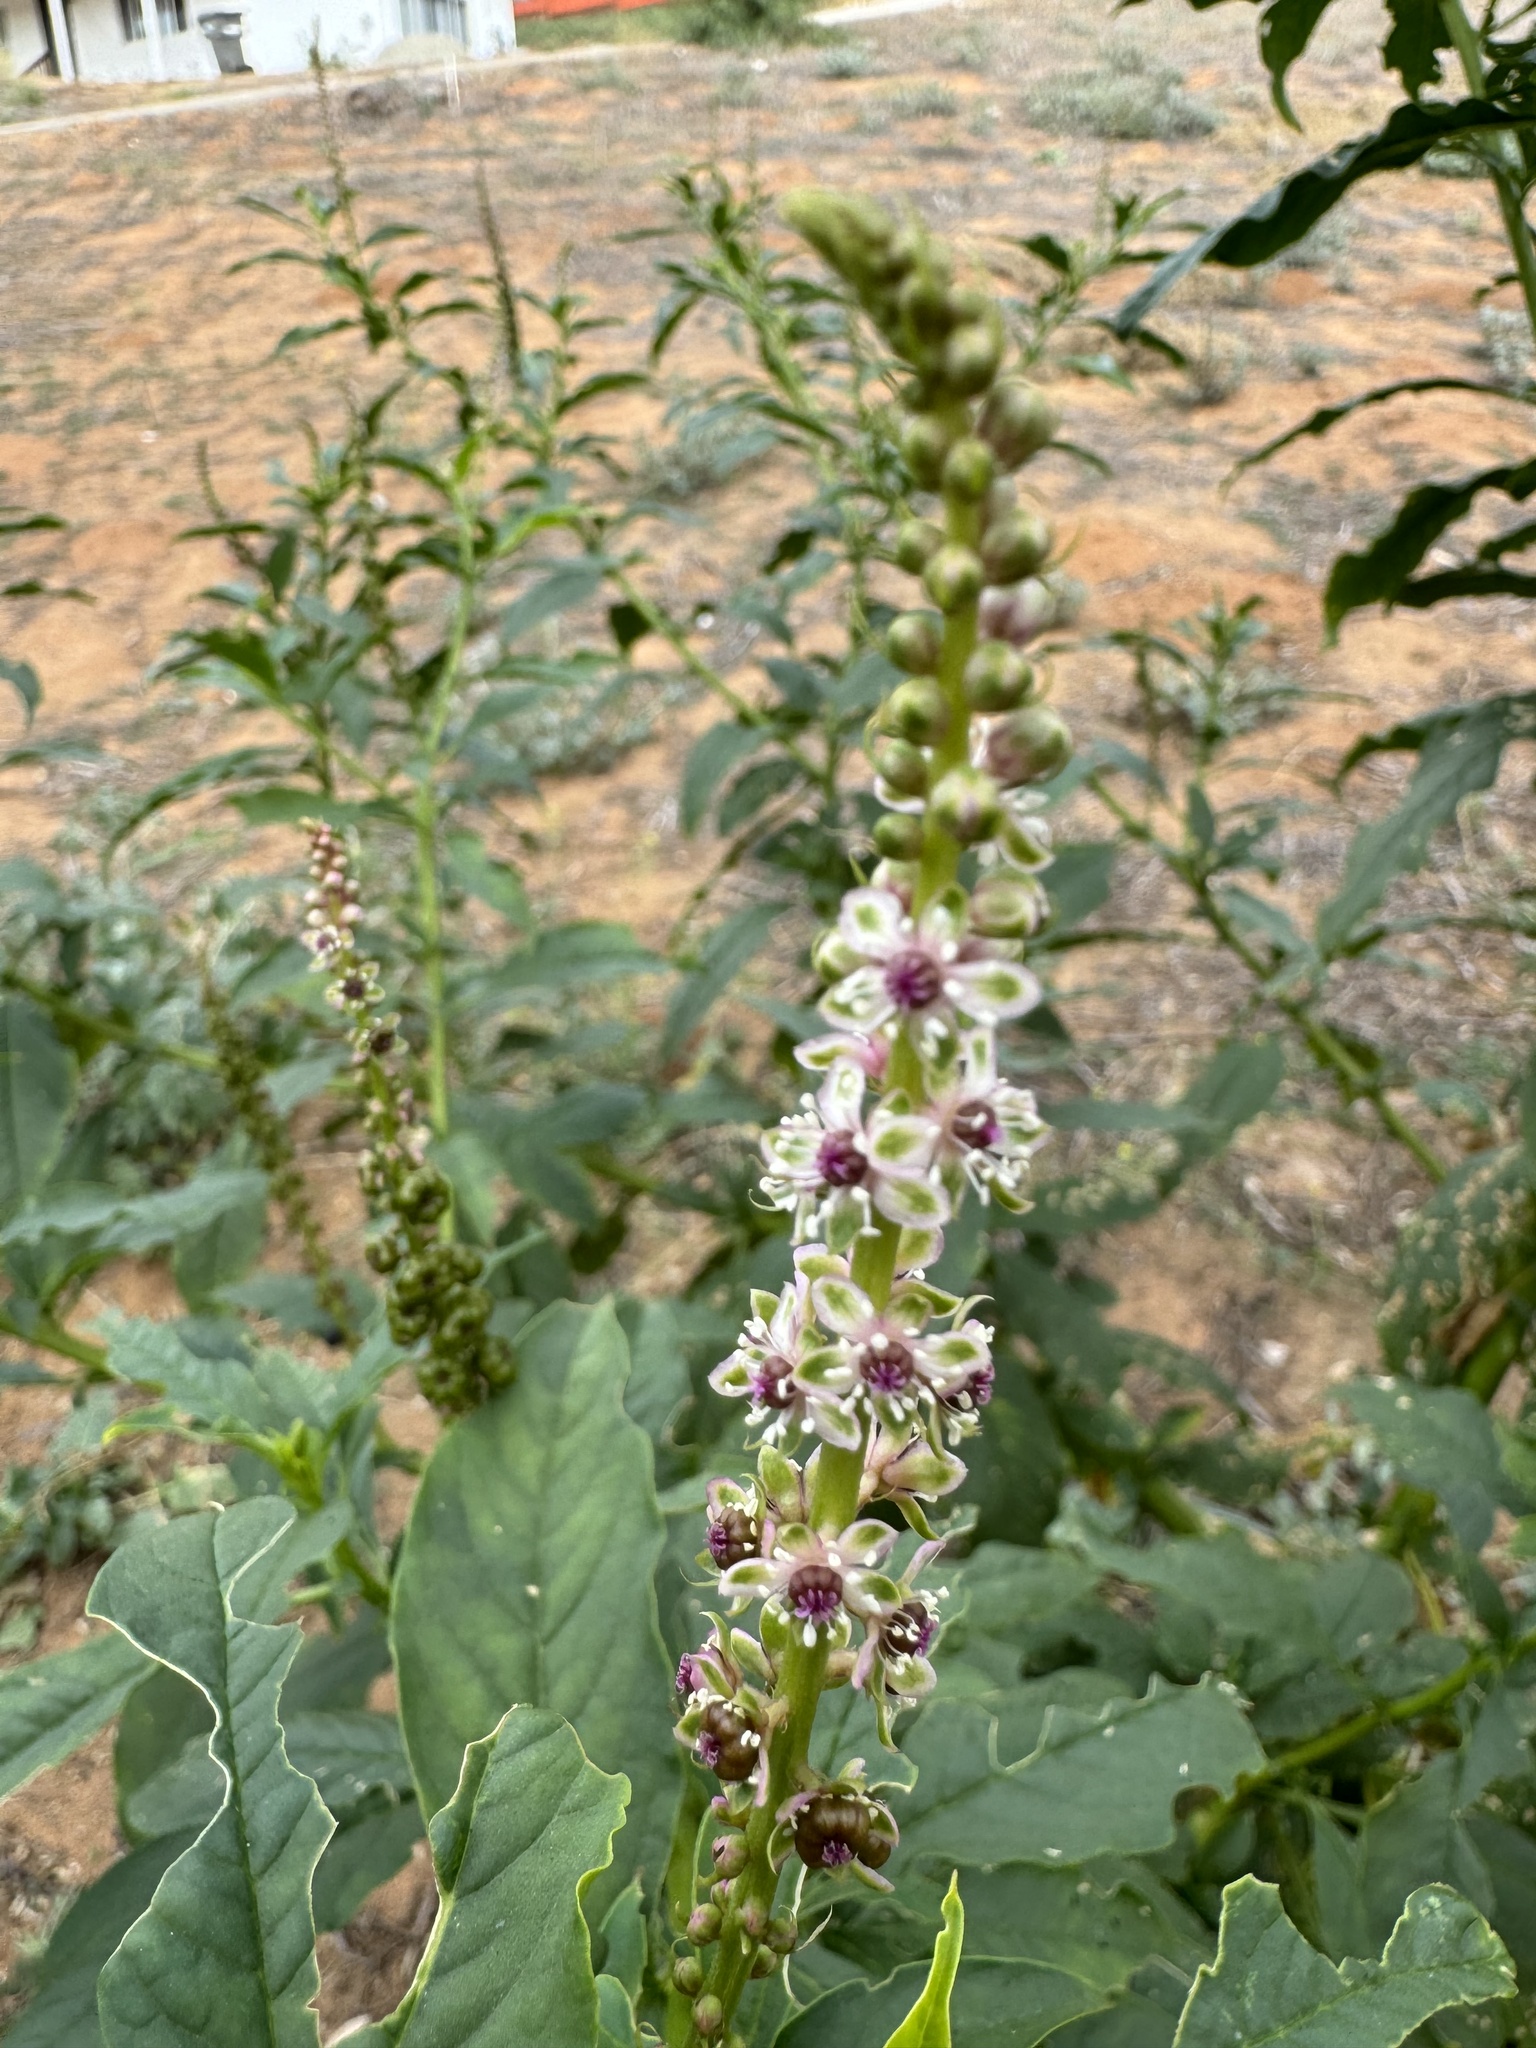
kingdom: Plantae
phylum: Tracheophyta
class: Magnoliopsida
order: Caryophyllales
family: Phytolaccaceae
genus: Phytolacca
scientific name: Phytolacca icosandra
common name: Button pokeweed
